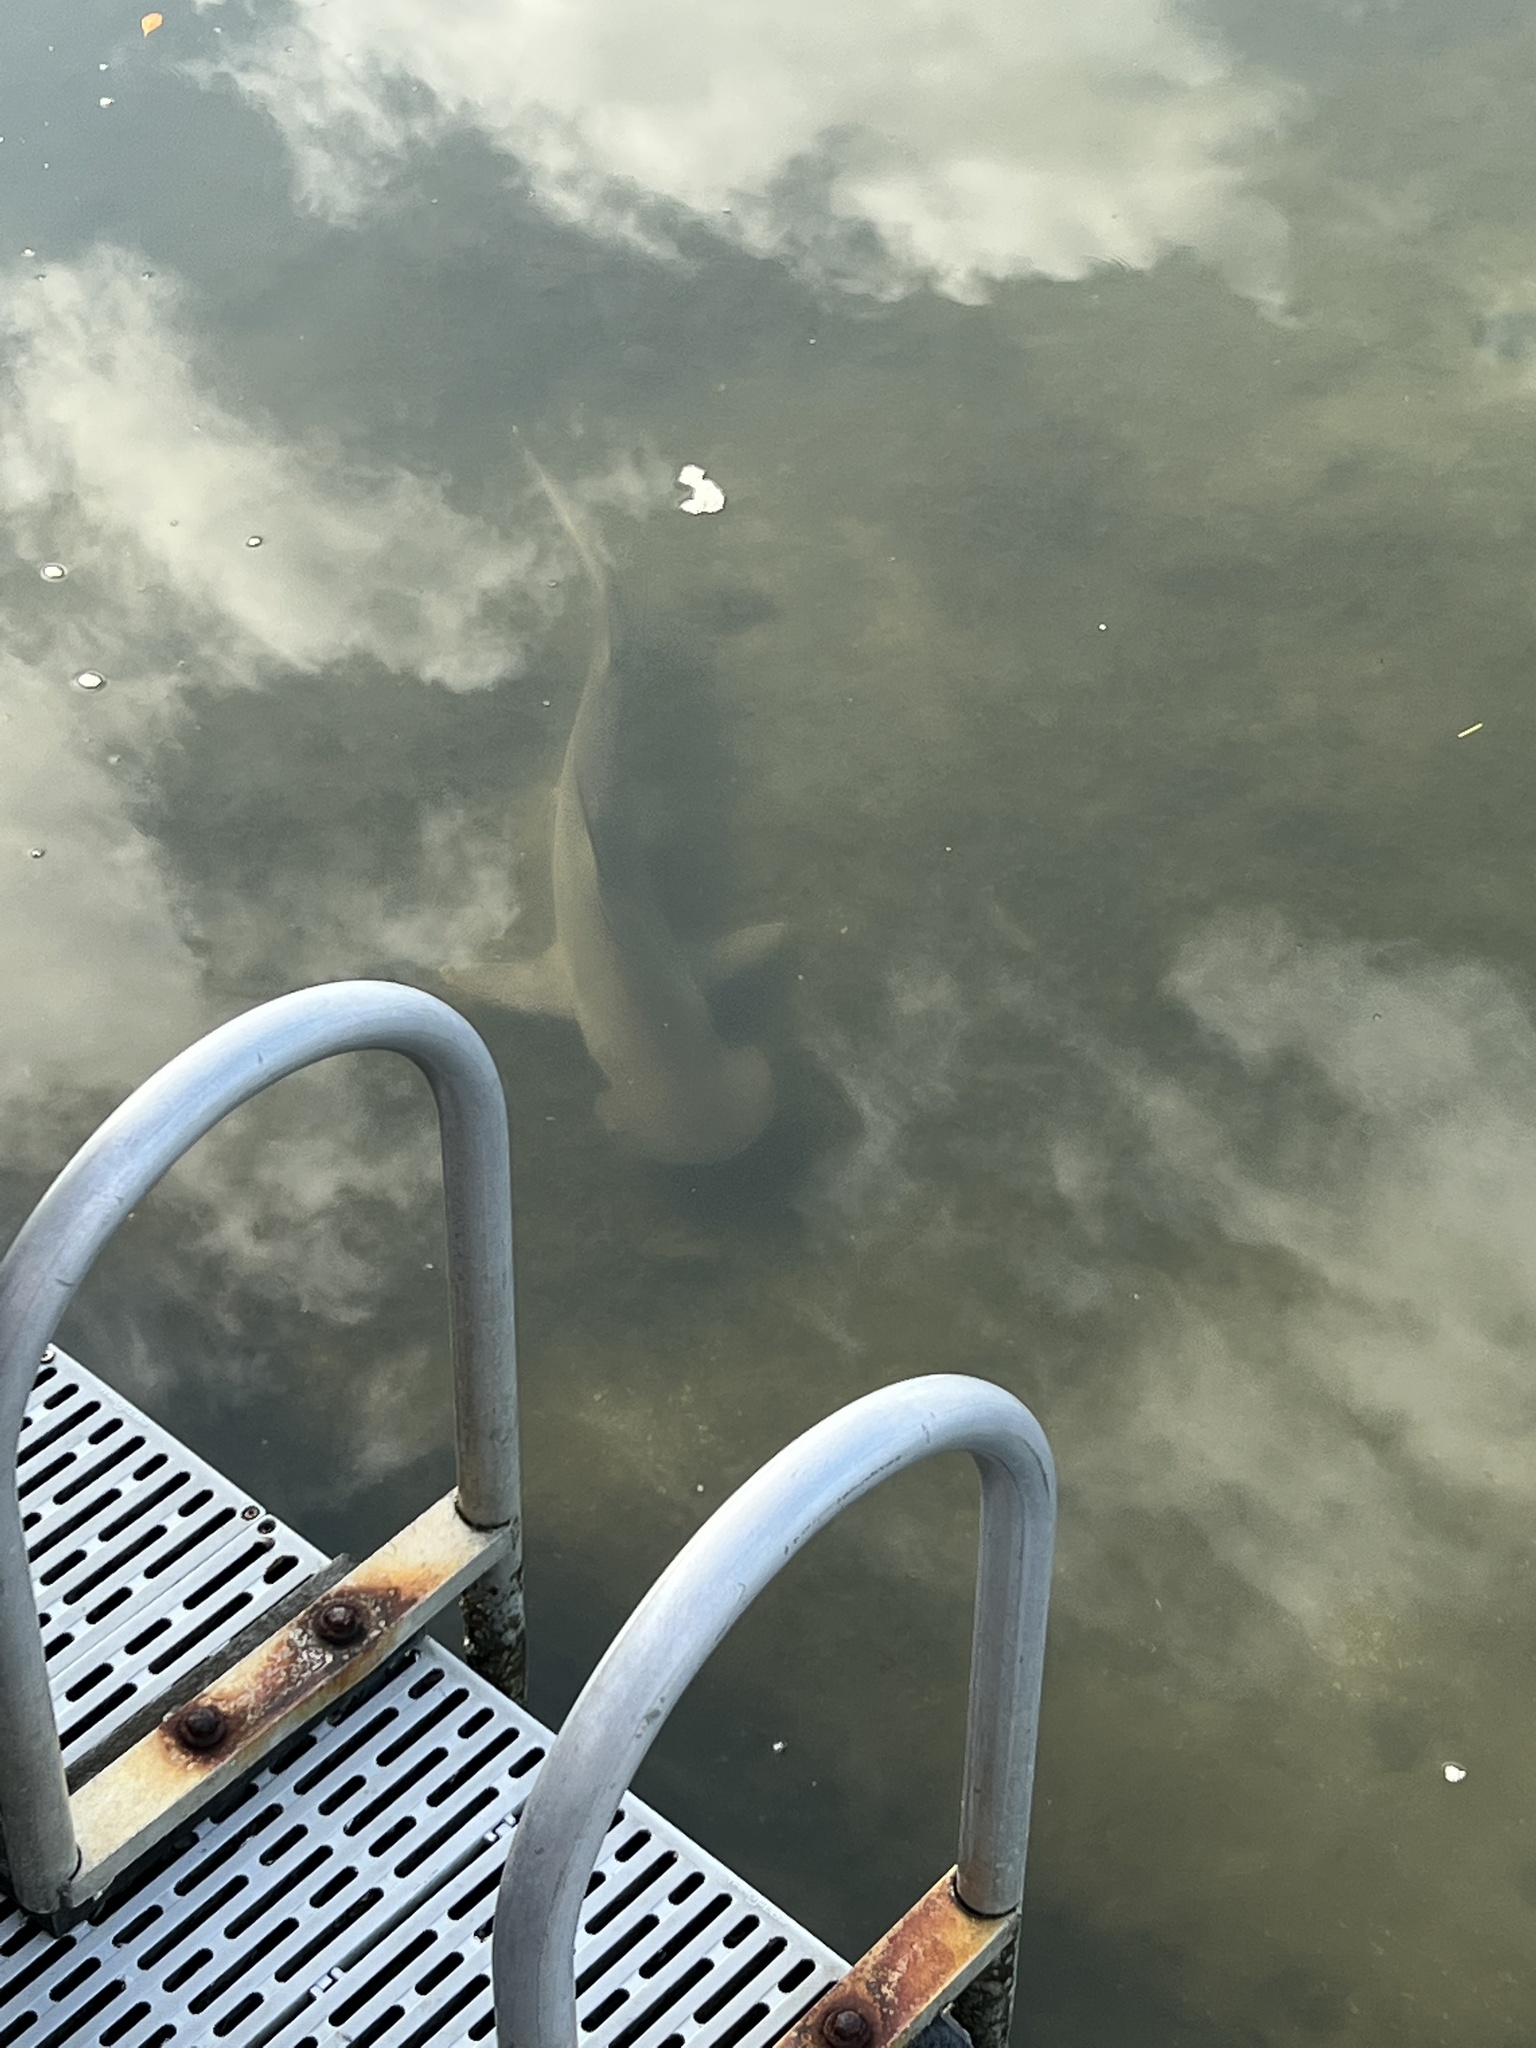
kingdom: Animalia
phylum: Chordata
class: Elasmobranchii
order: Carcharhiniformes
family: Sphyrnidae
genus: Sphyrna
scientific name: Sphyrna tiburo
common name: Bonnethead
